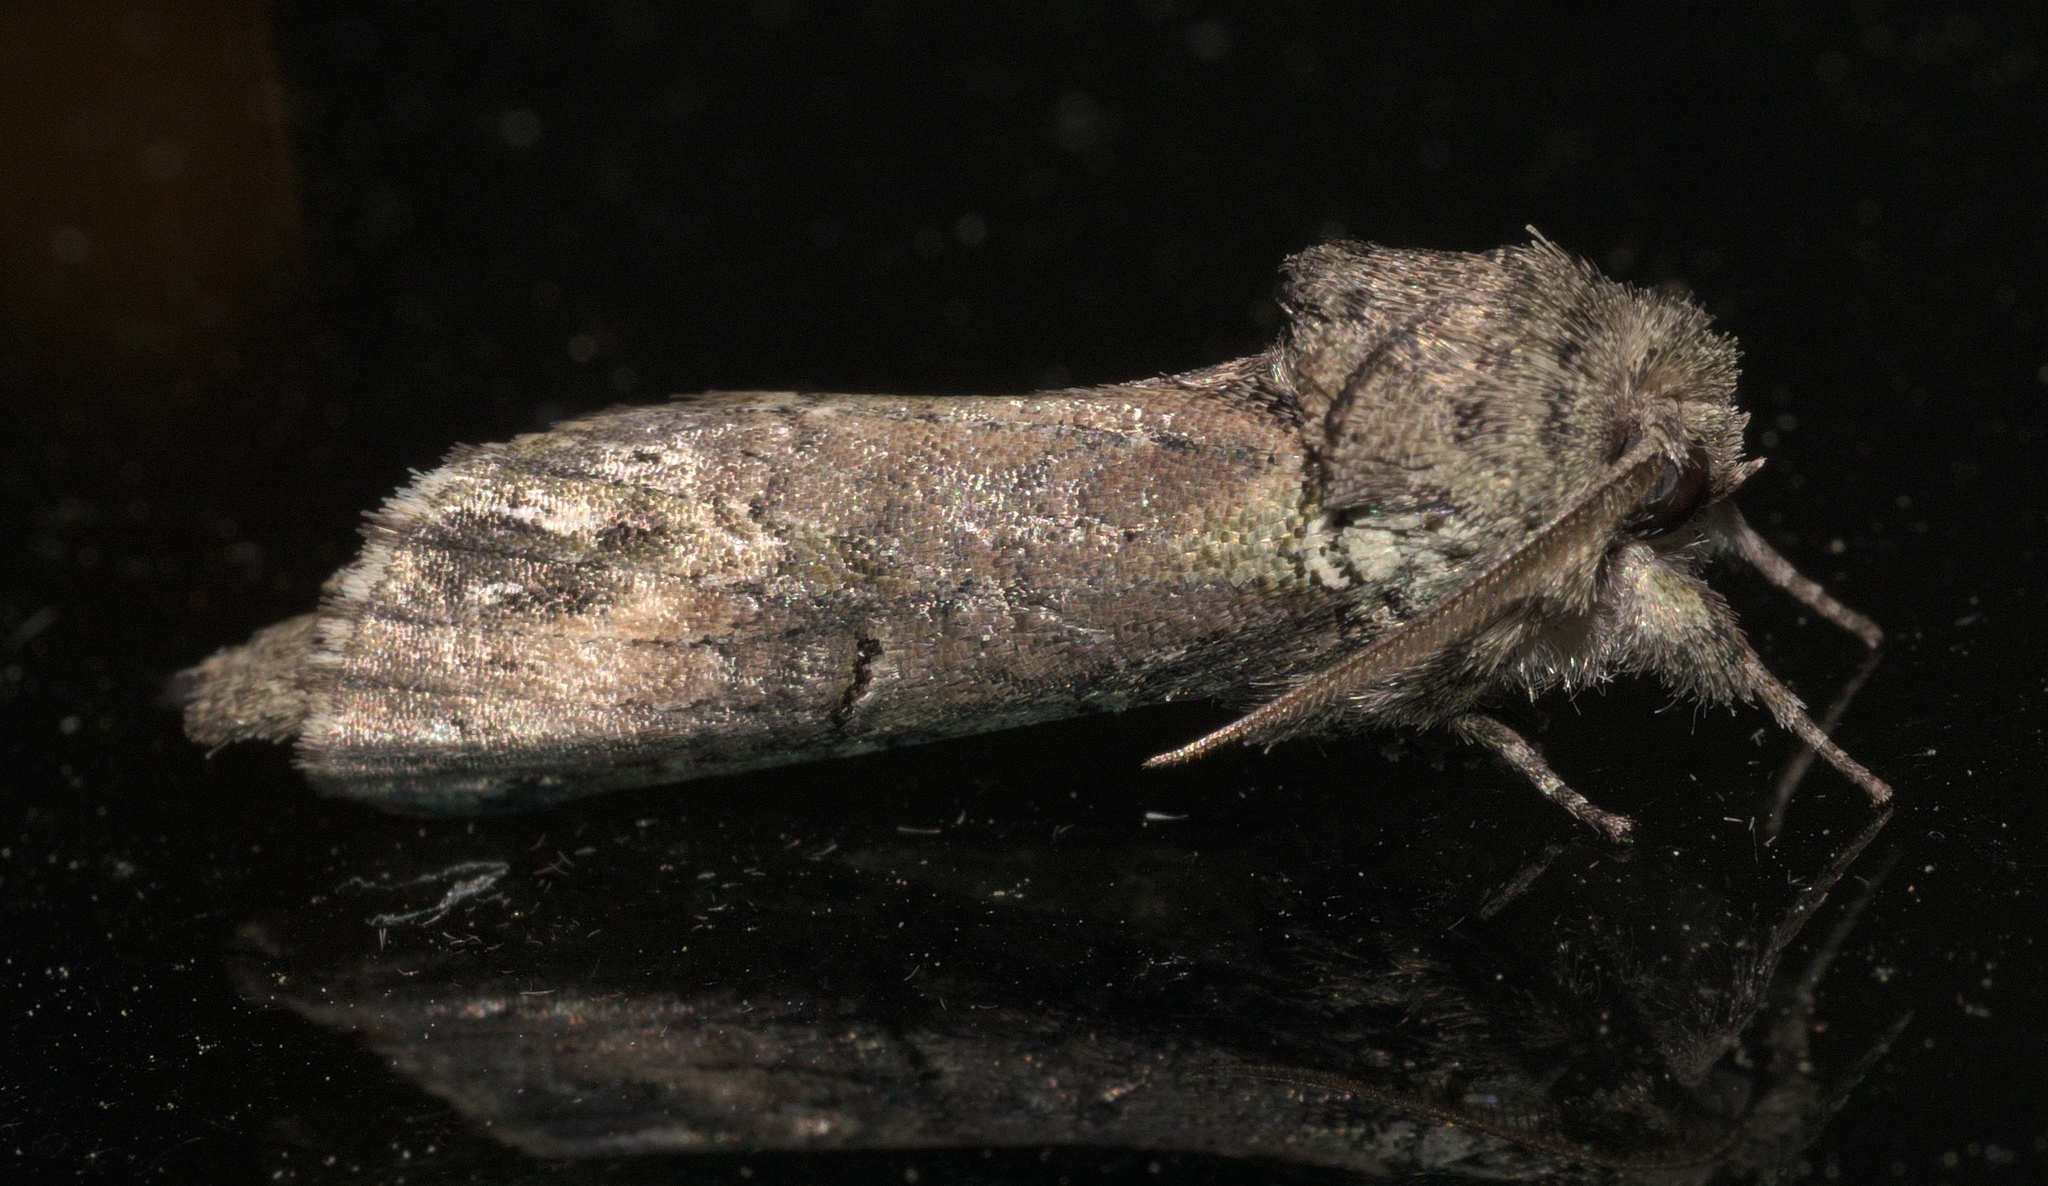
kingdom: Animalia
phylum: Arthropoda
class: Insecta
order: Lepidoptera
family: Notodontidae
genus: Schizura
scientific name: Schizura
